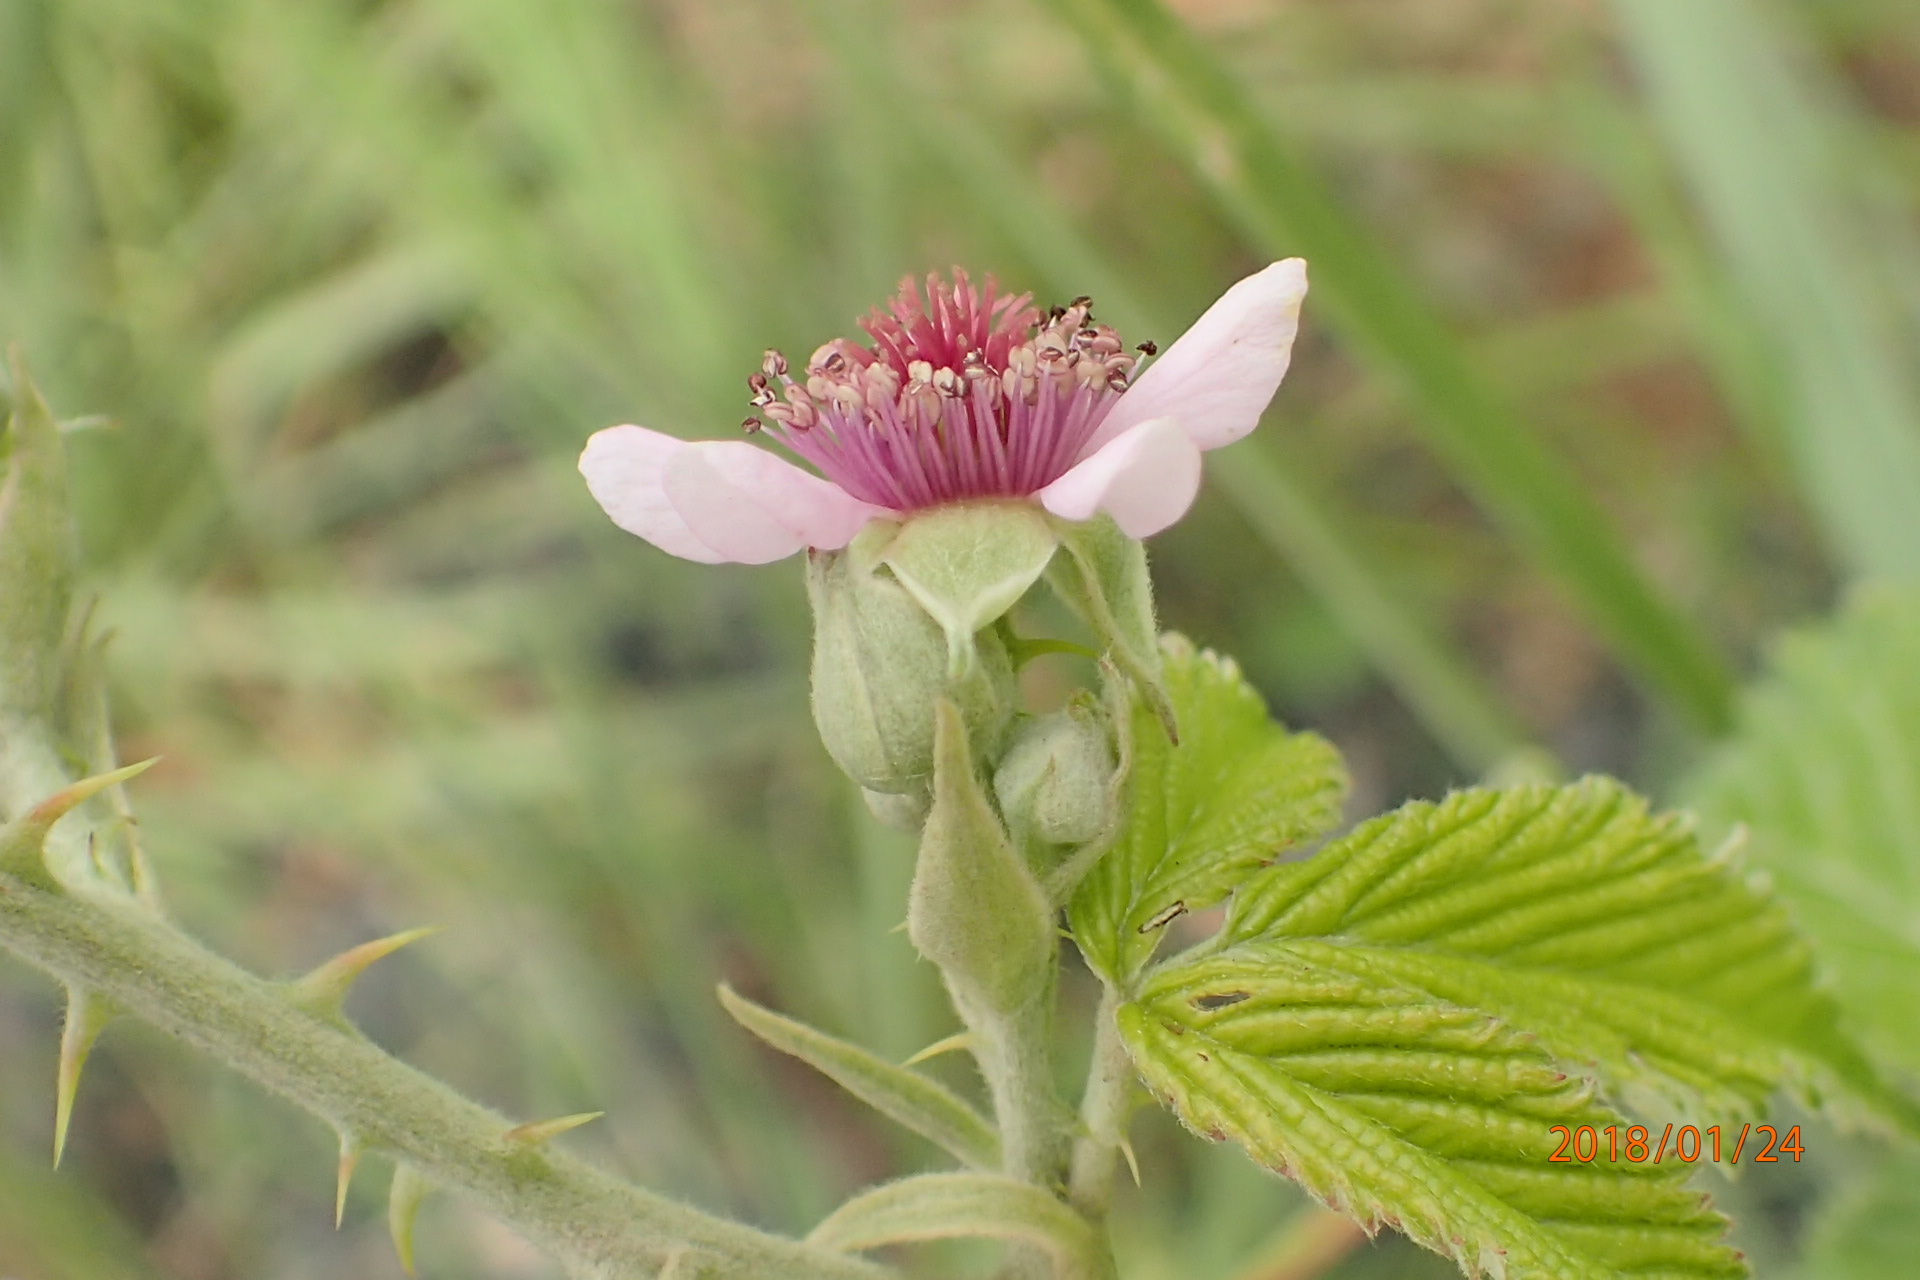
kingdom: Plantae
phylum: Tracheophyta
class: Magnoliopsida
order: Rosales
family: Rosaceae
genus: Rubus
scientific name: Rubus rigidus
